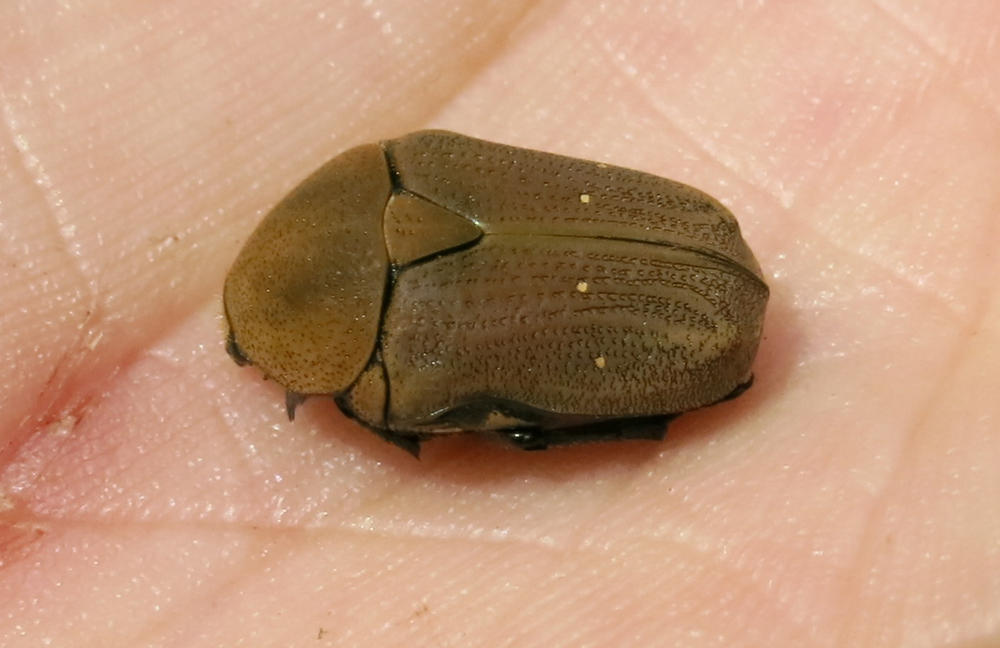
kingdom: Animalia
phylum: Arthropoda
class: Insecta
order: Coleoptera
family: Scarabaeidae
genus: Tephraea
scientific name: Tephraea dichroa
